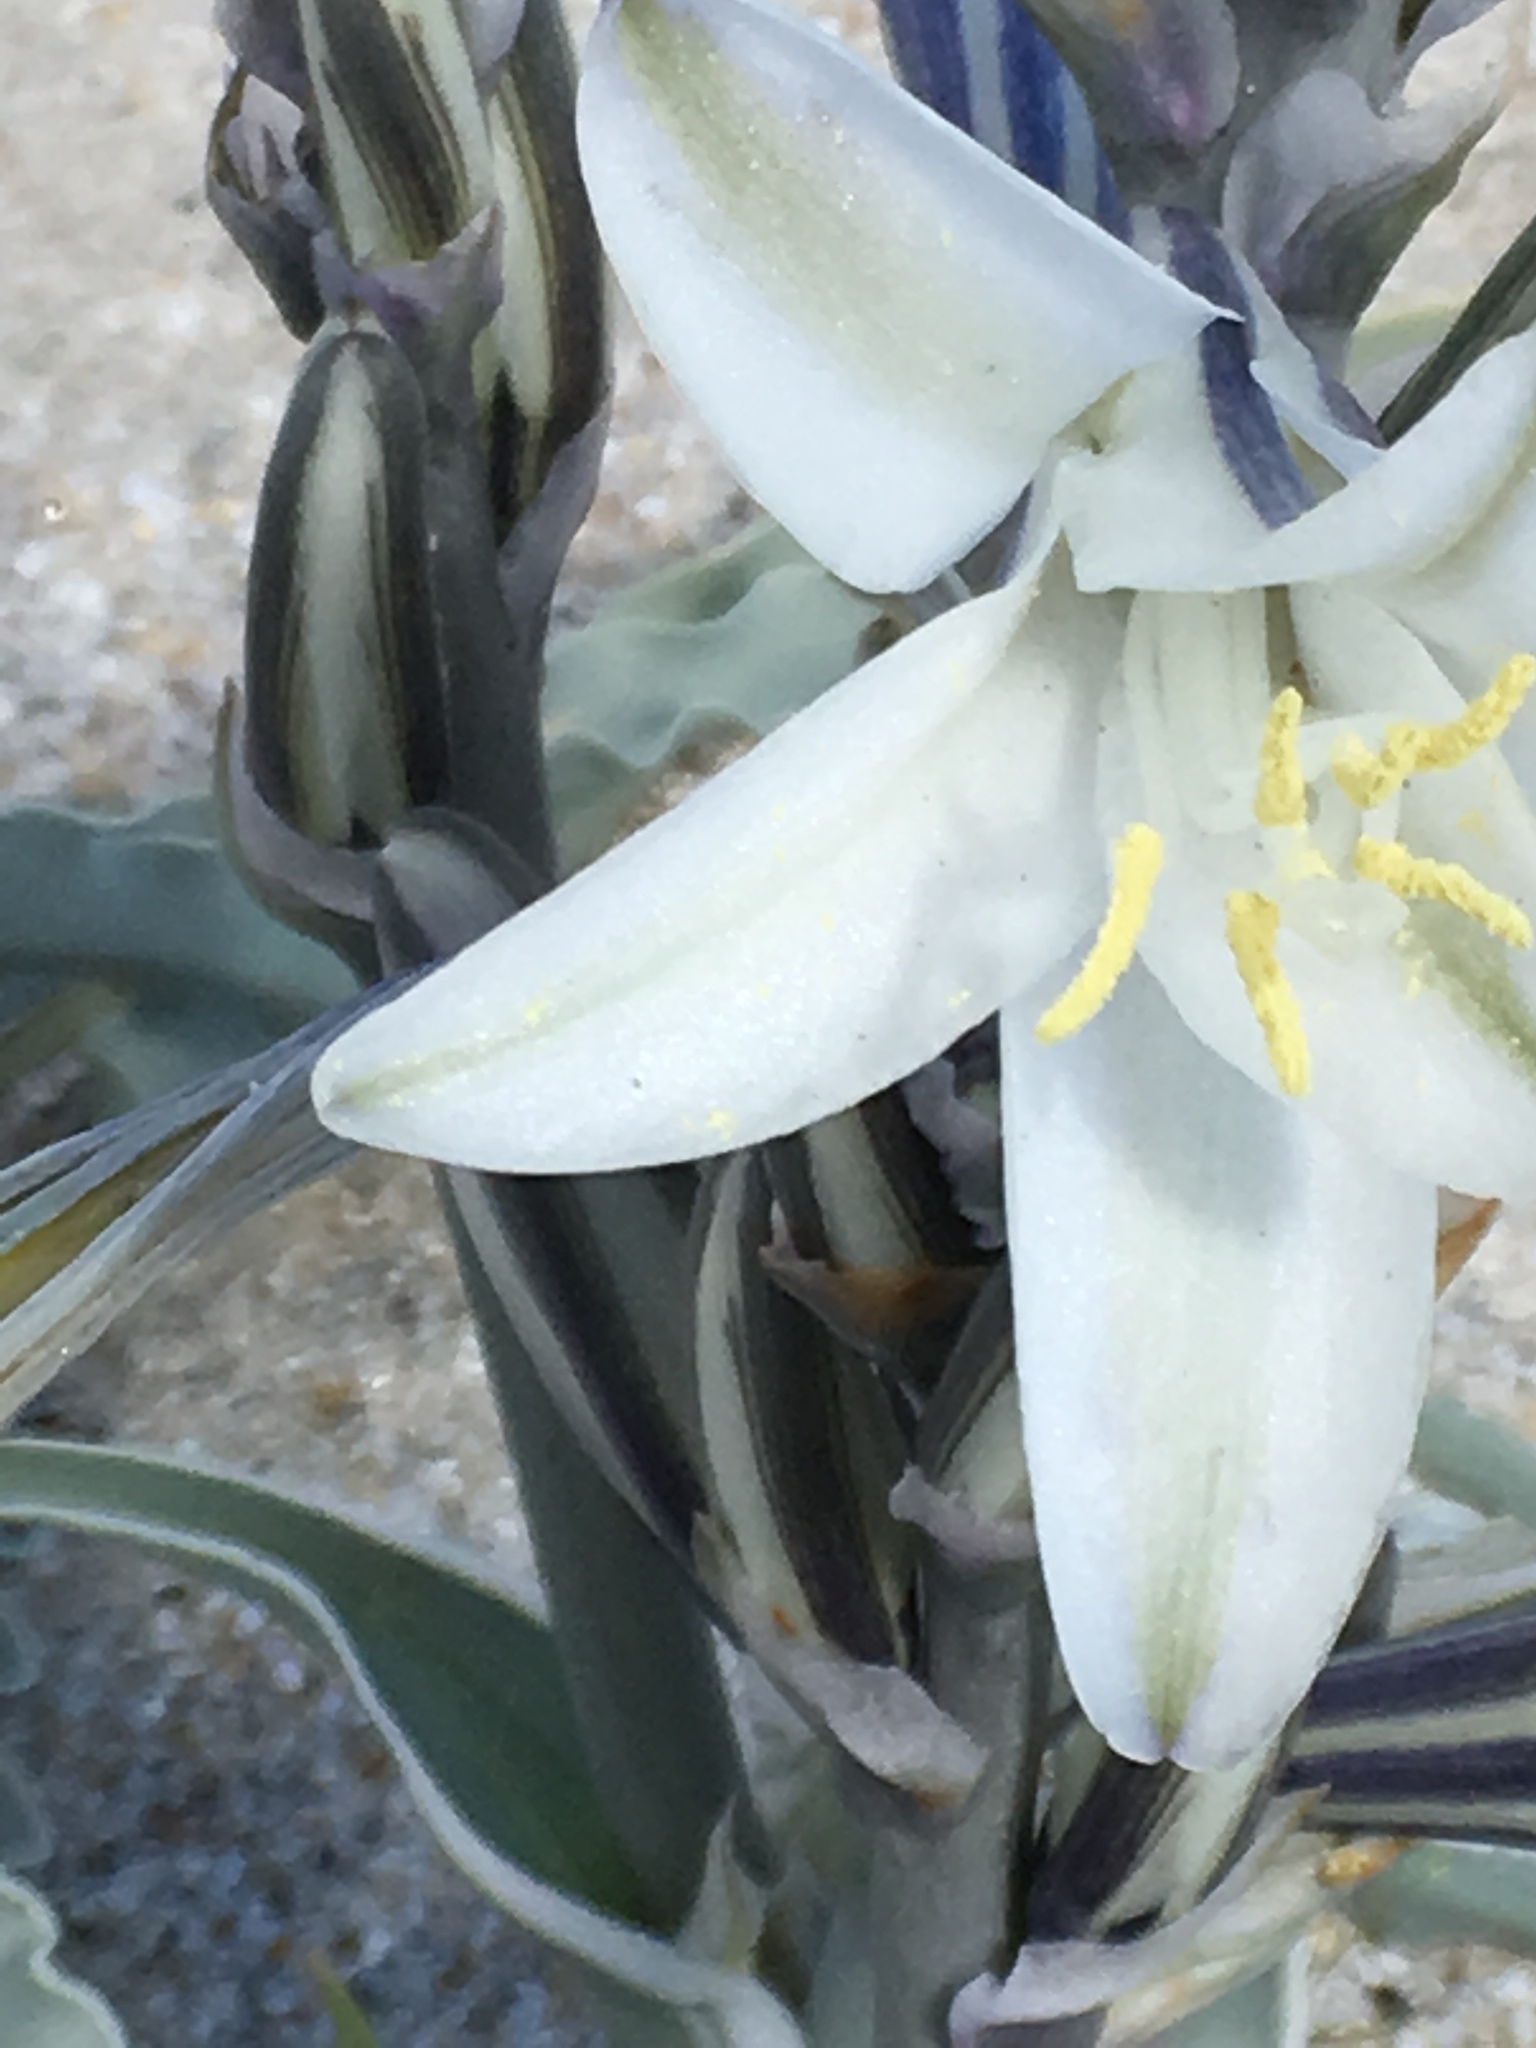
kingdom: Plantae
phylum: Tracheophyta
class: Liliopsida
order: Asparagales
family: Asparagaceae
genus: Hesperocallis
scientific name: Hesperocallis undulata
